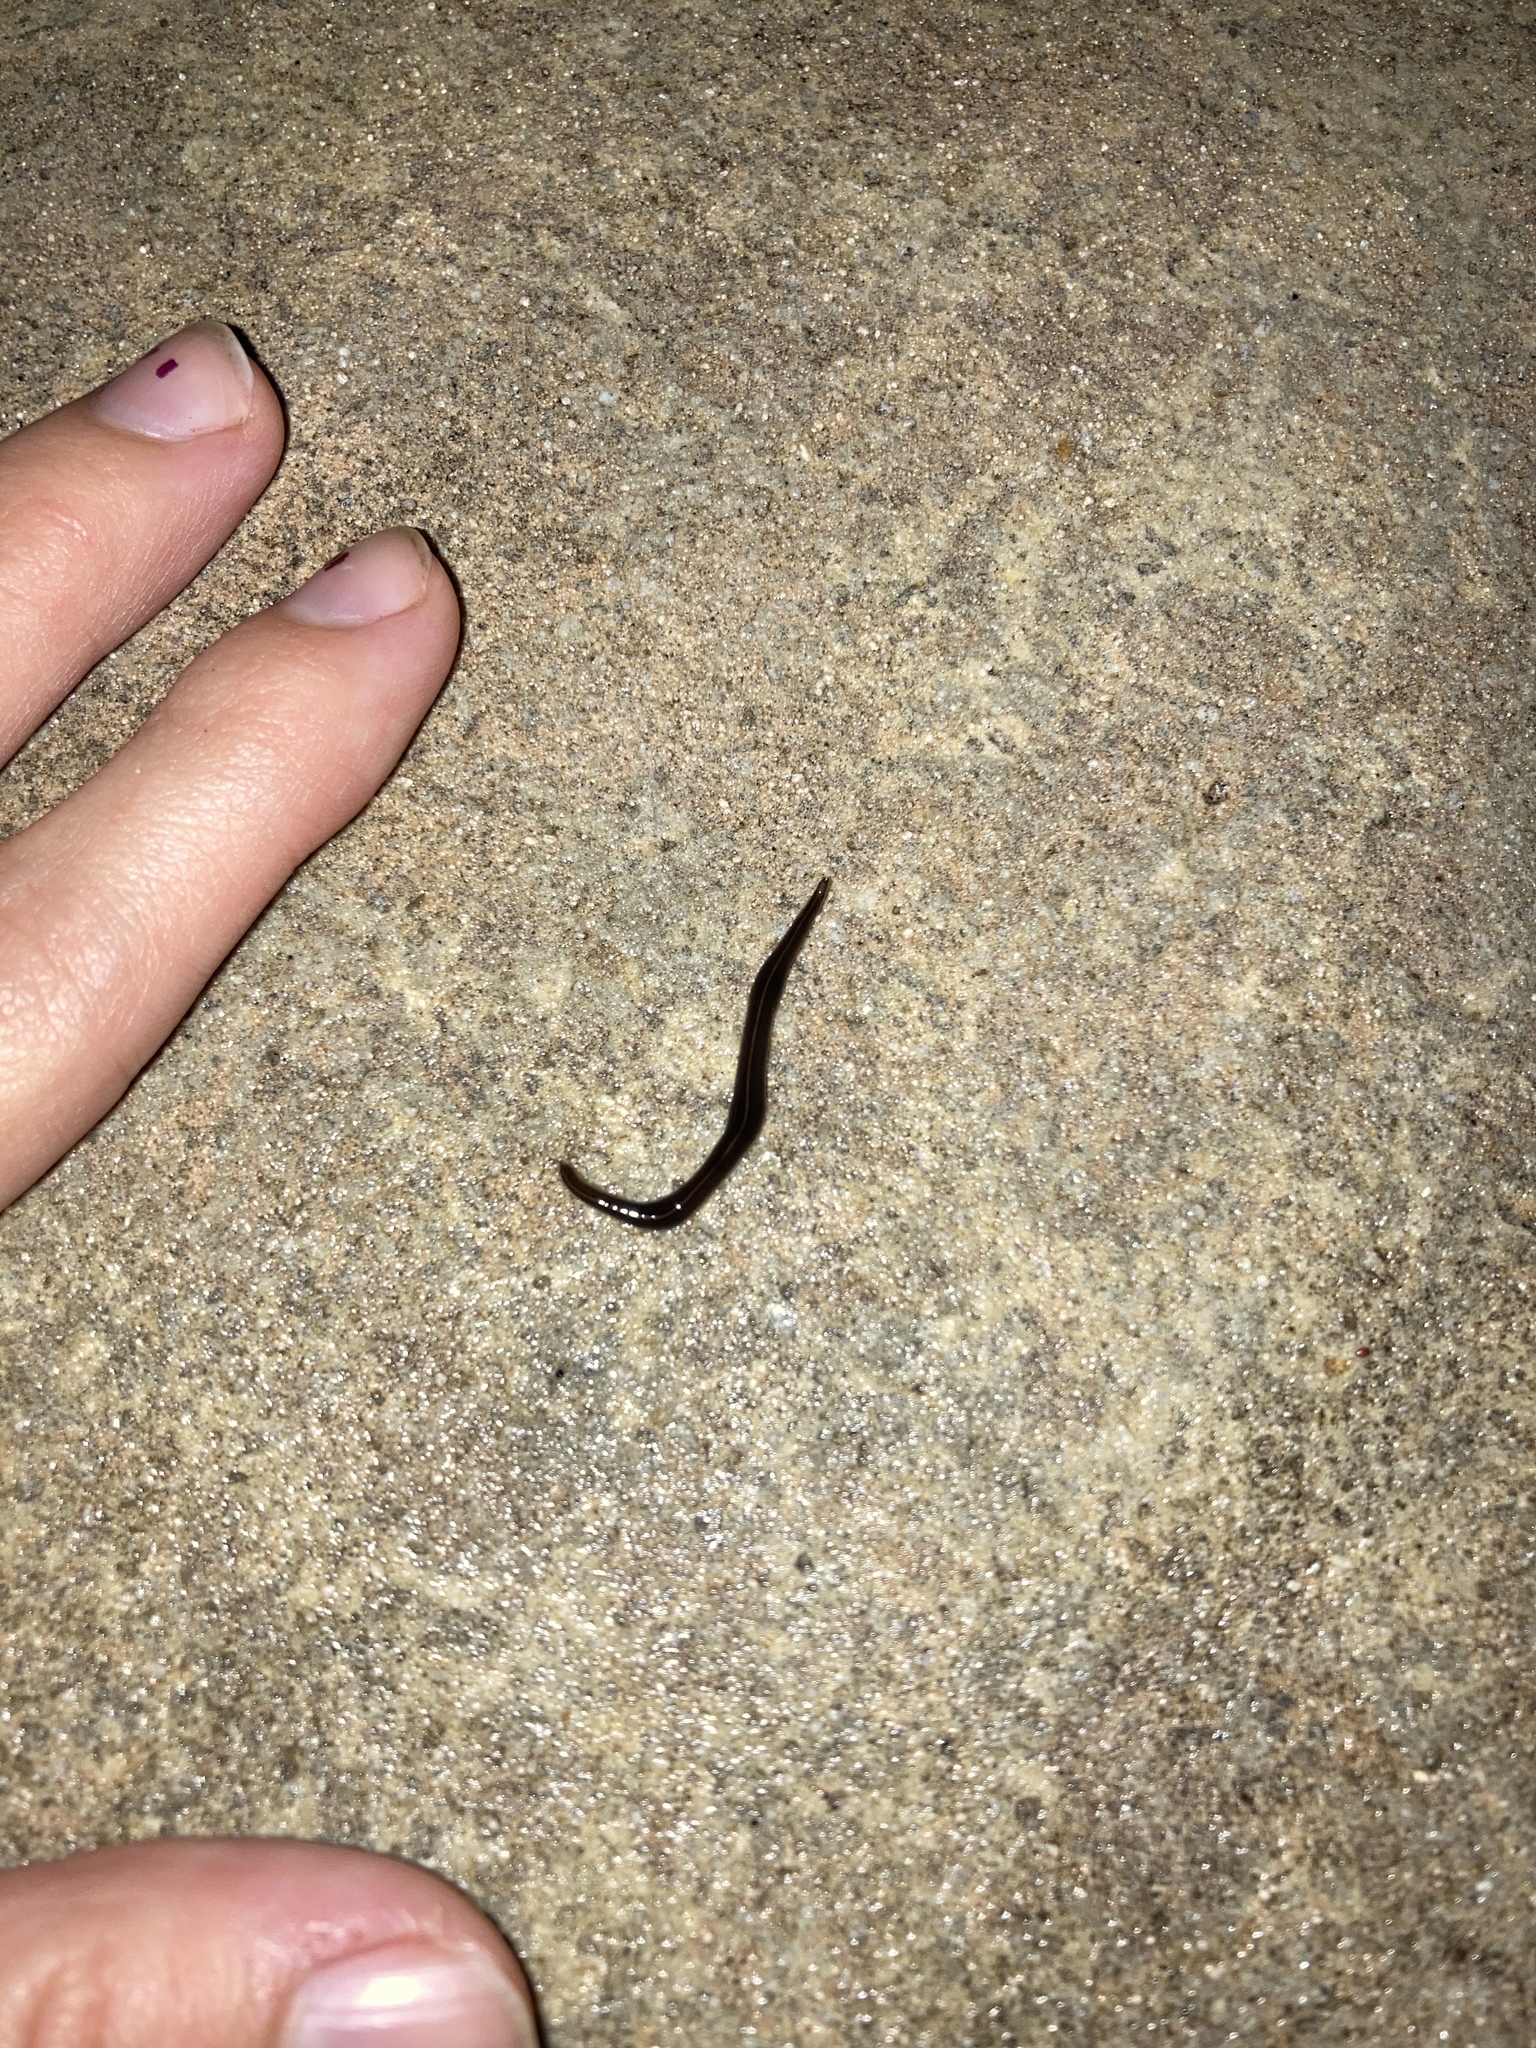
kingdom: Animalia
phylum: Platyhelminthes
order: Tricladida
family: Geoplanidae
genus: Platydemus
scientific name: Platydemus manokwari
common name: New guinea flatworm
